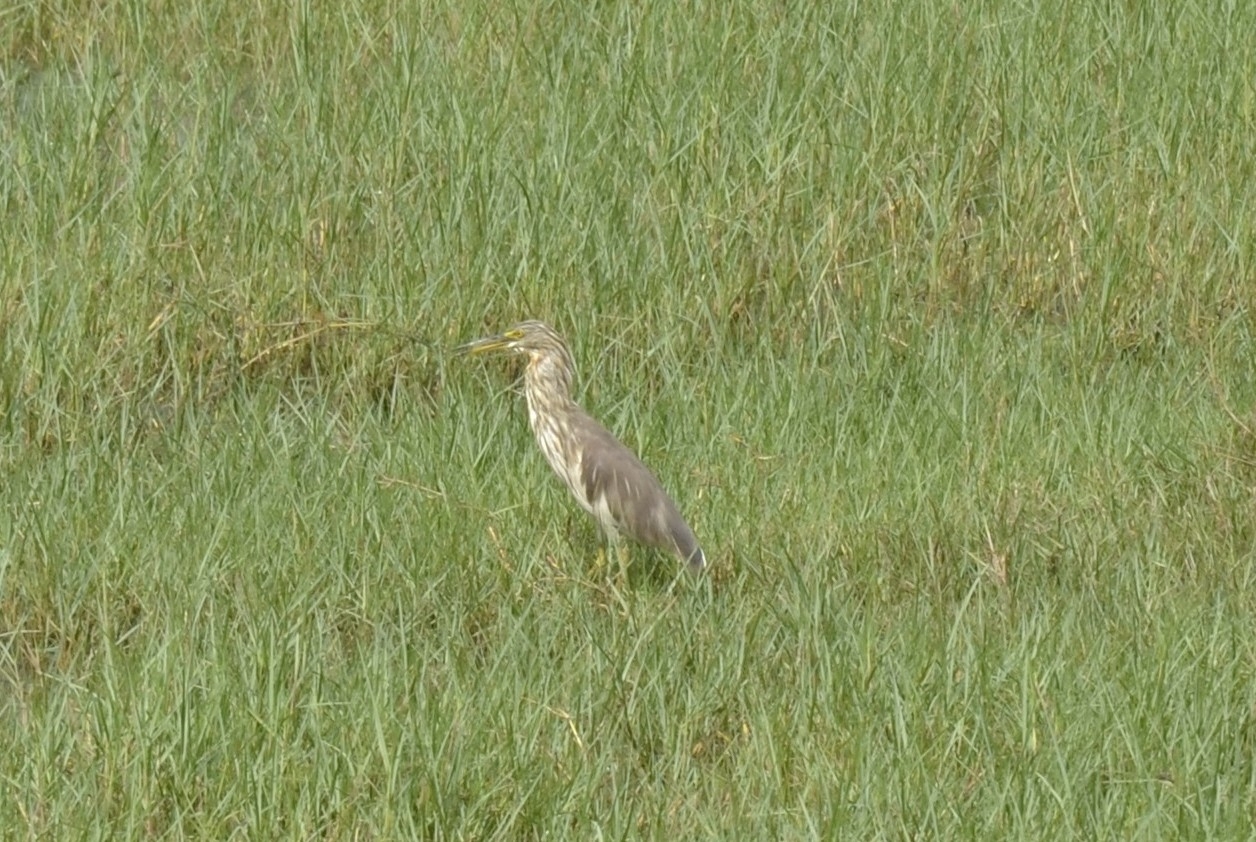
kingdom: Animalia
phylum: Chordata
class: Aves
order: Pelecaniformes
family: Ardeidae
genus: Ardeola
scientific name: Ardeola grayii
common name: Indian pond heron
